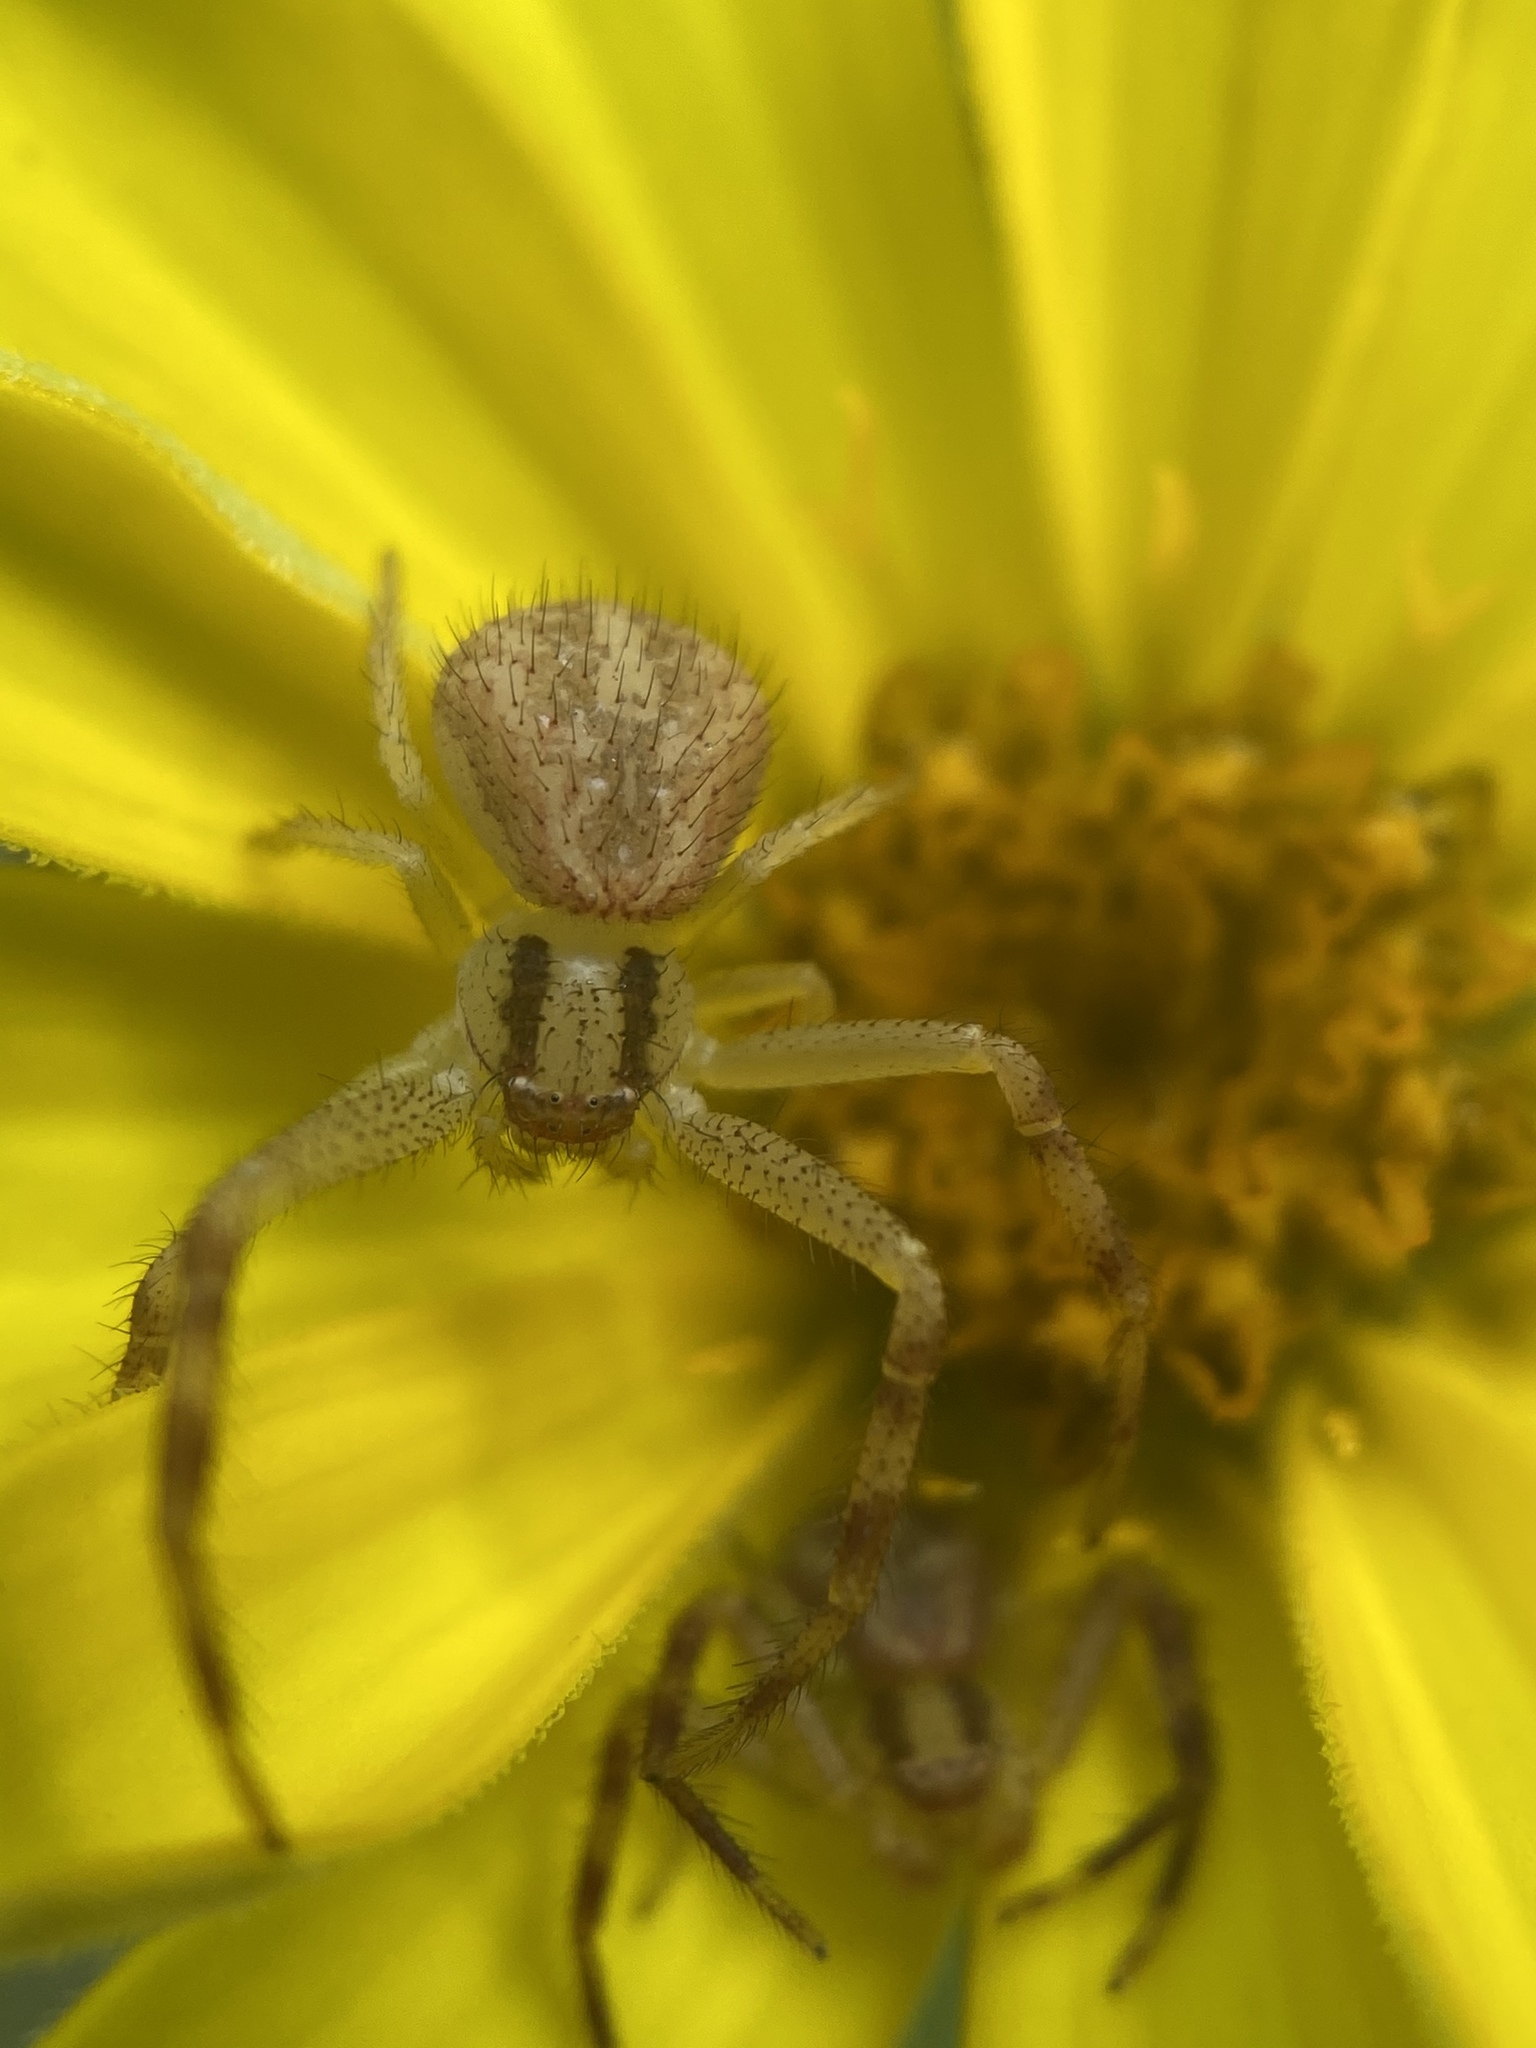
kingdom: Animalia
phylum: Arthropoda
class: Arachnida
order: Araneae
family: Thomisidae
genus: Mecaphesa
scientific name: Mecaphesa asperata
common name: Crab spiders
